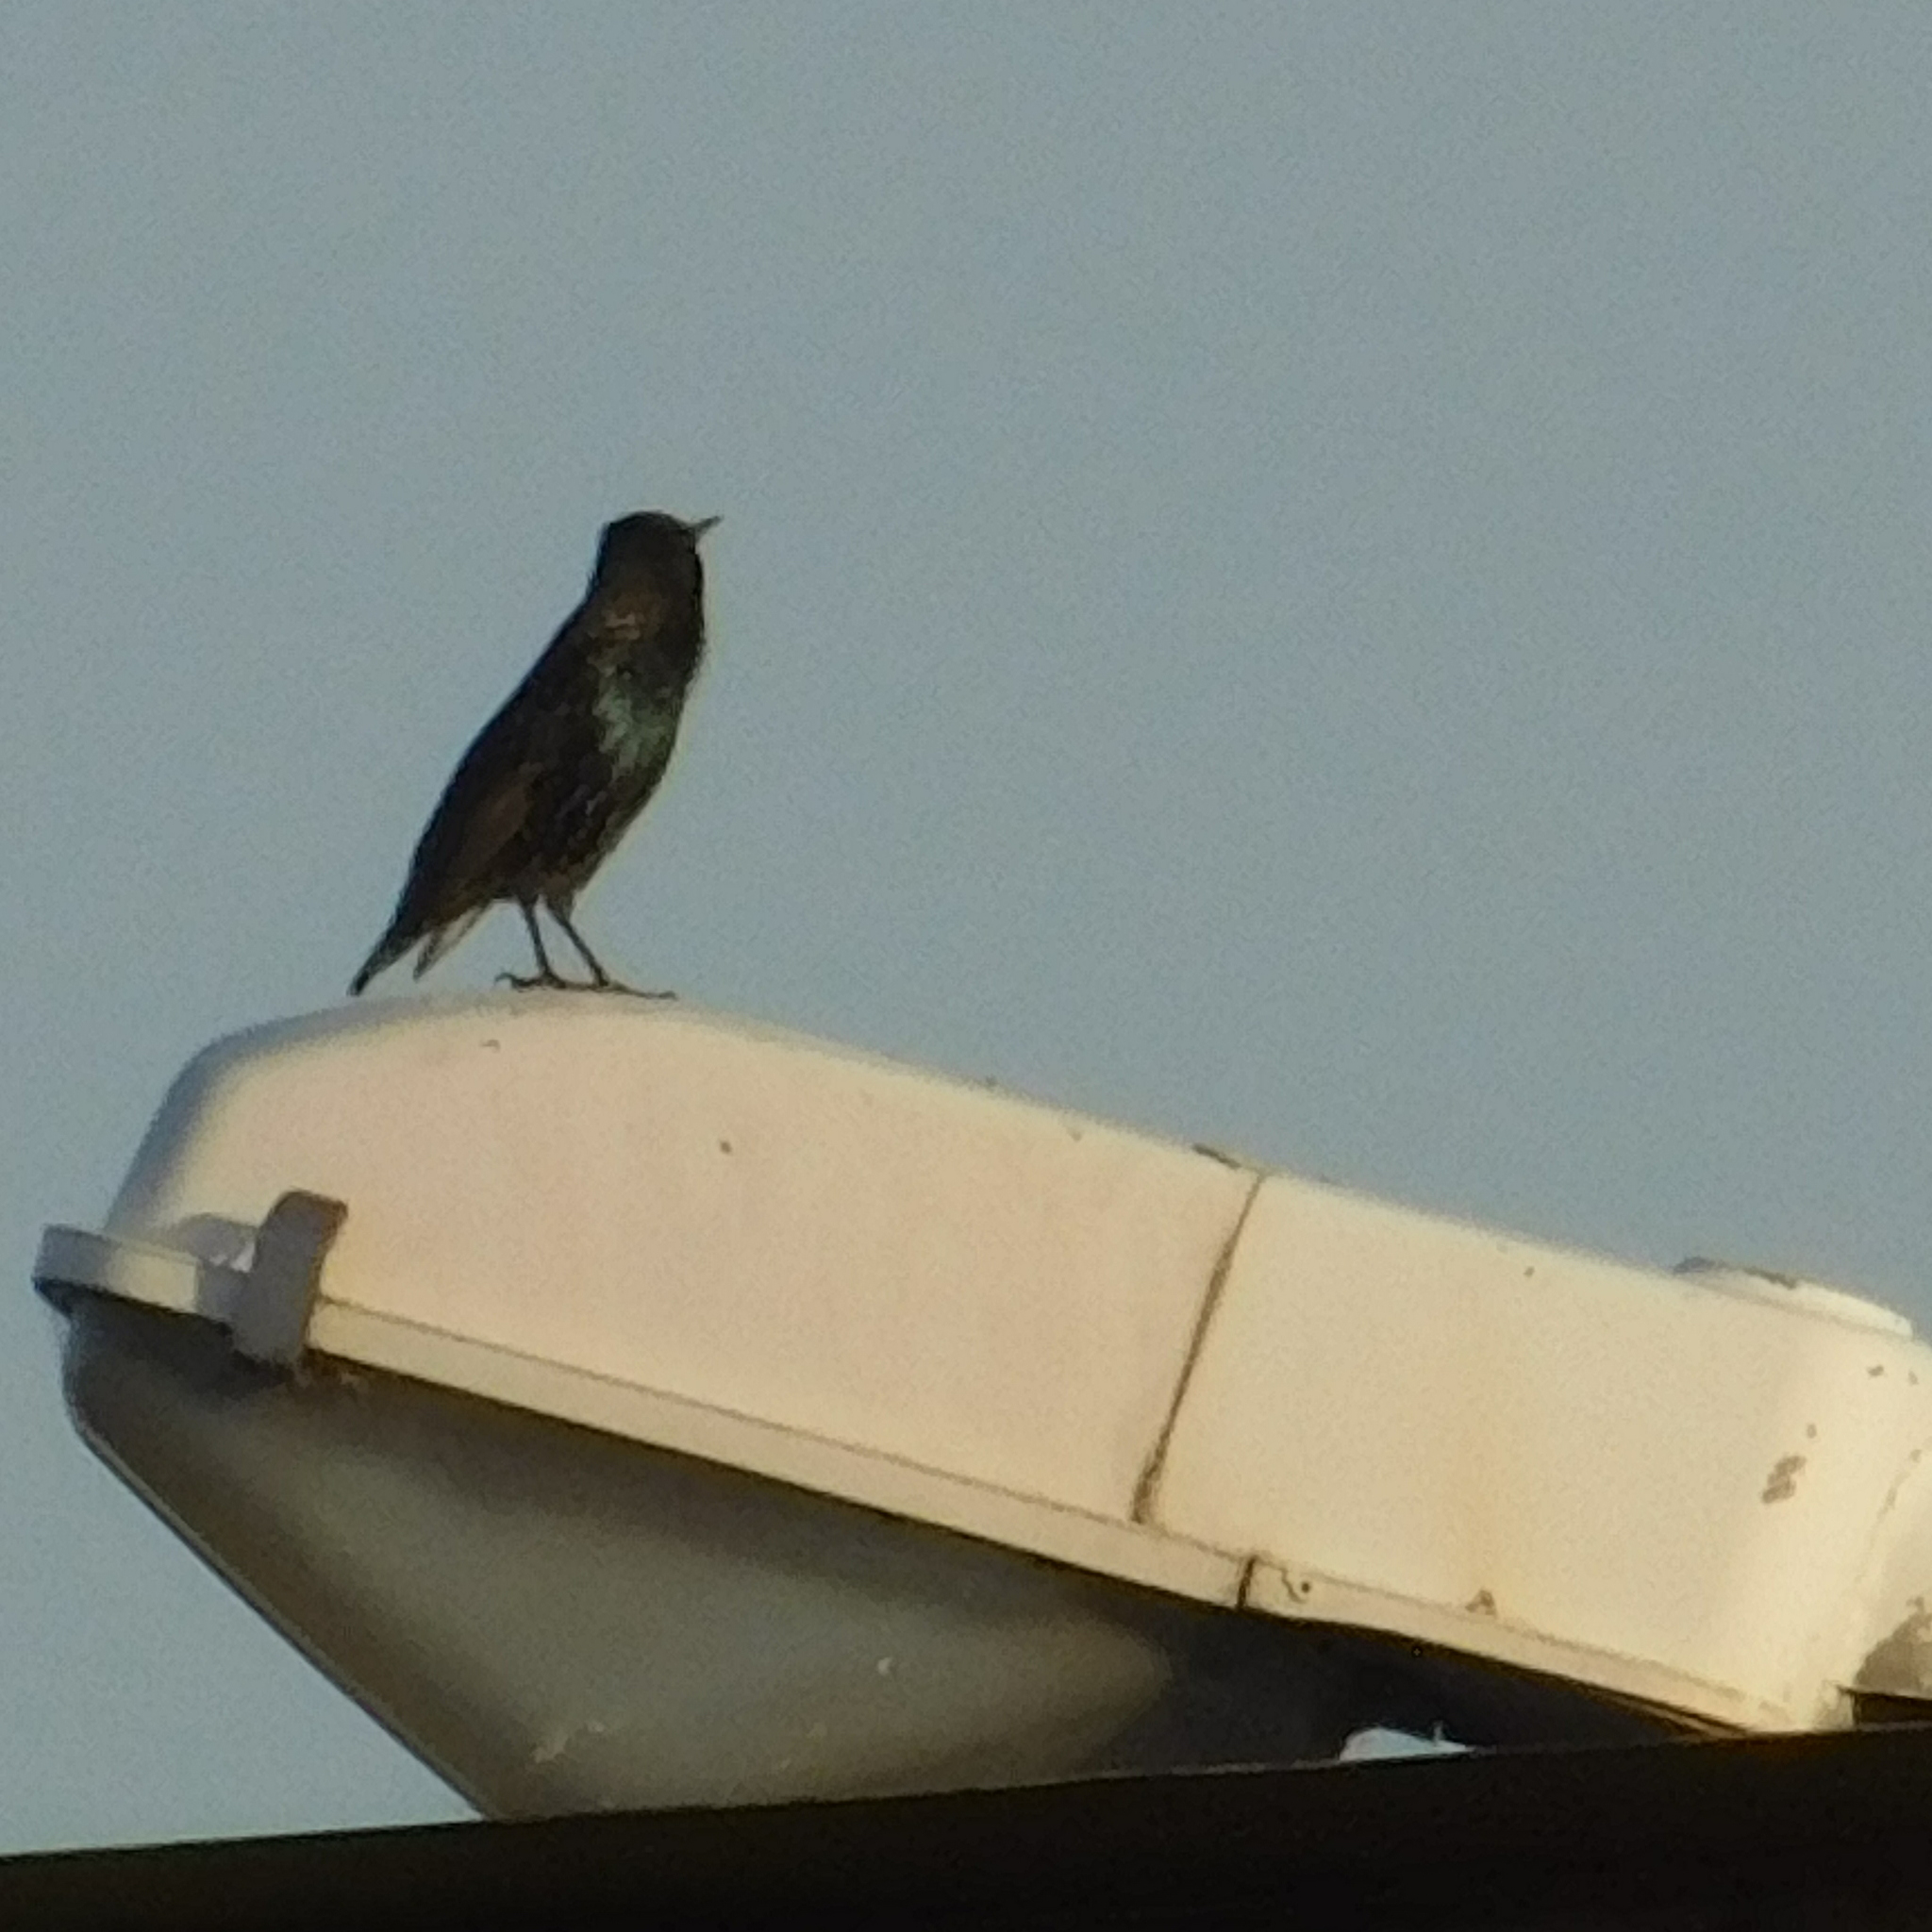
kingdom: Animalia
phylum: Chordata
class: Aves
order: Passeriformes
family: Sturnidae
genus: Sturnus
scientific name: Sturnus vulgaris
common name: Common starling
